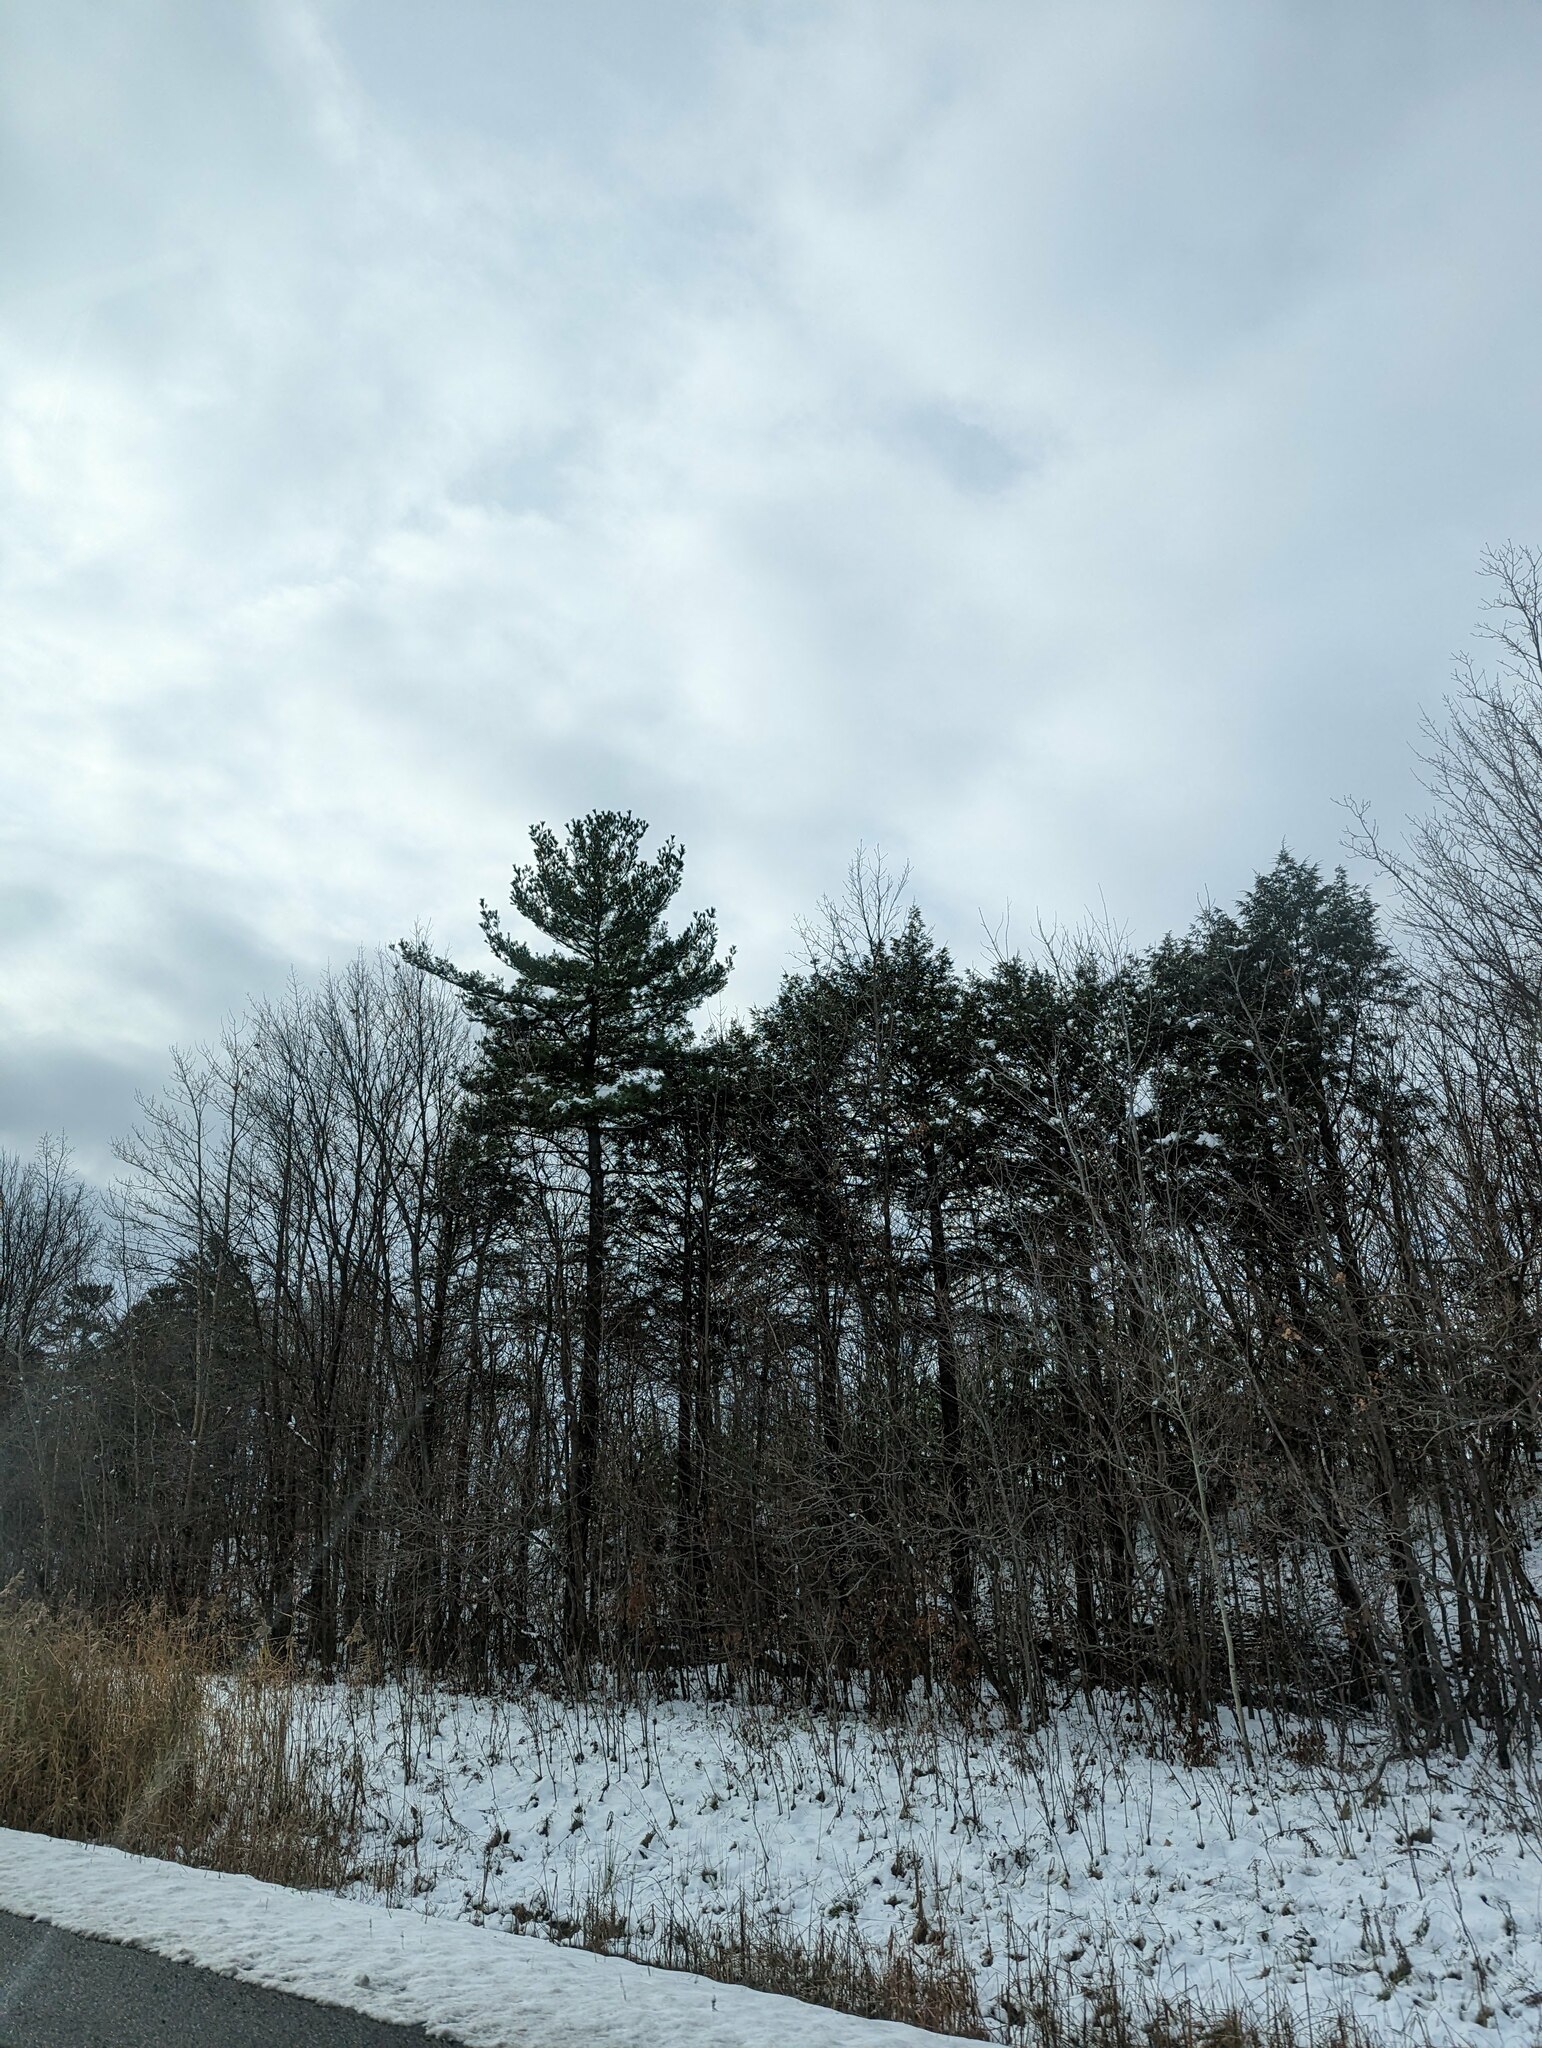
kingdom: Plantae
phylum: Tracheophyta
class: Pinopsida
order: Pinales
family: Pinaceae
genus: Pinus
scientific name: Pinus strobus
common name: Weymouth pine
